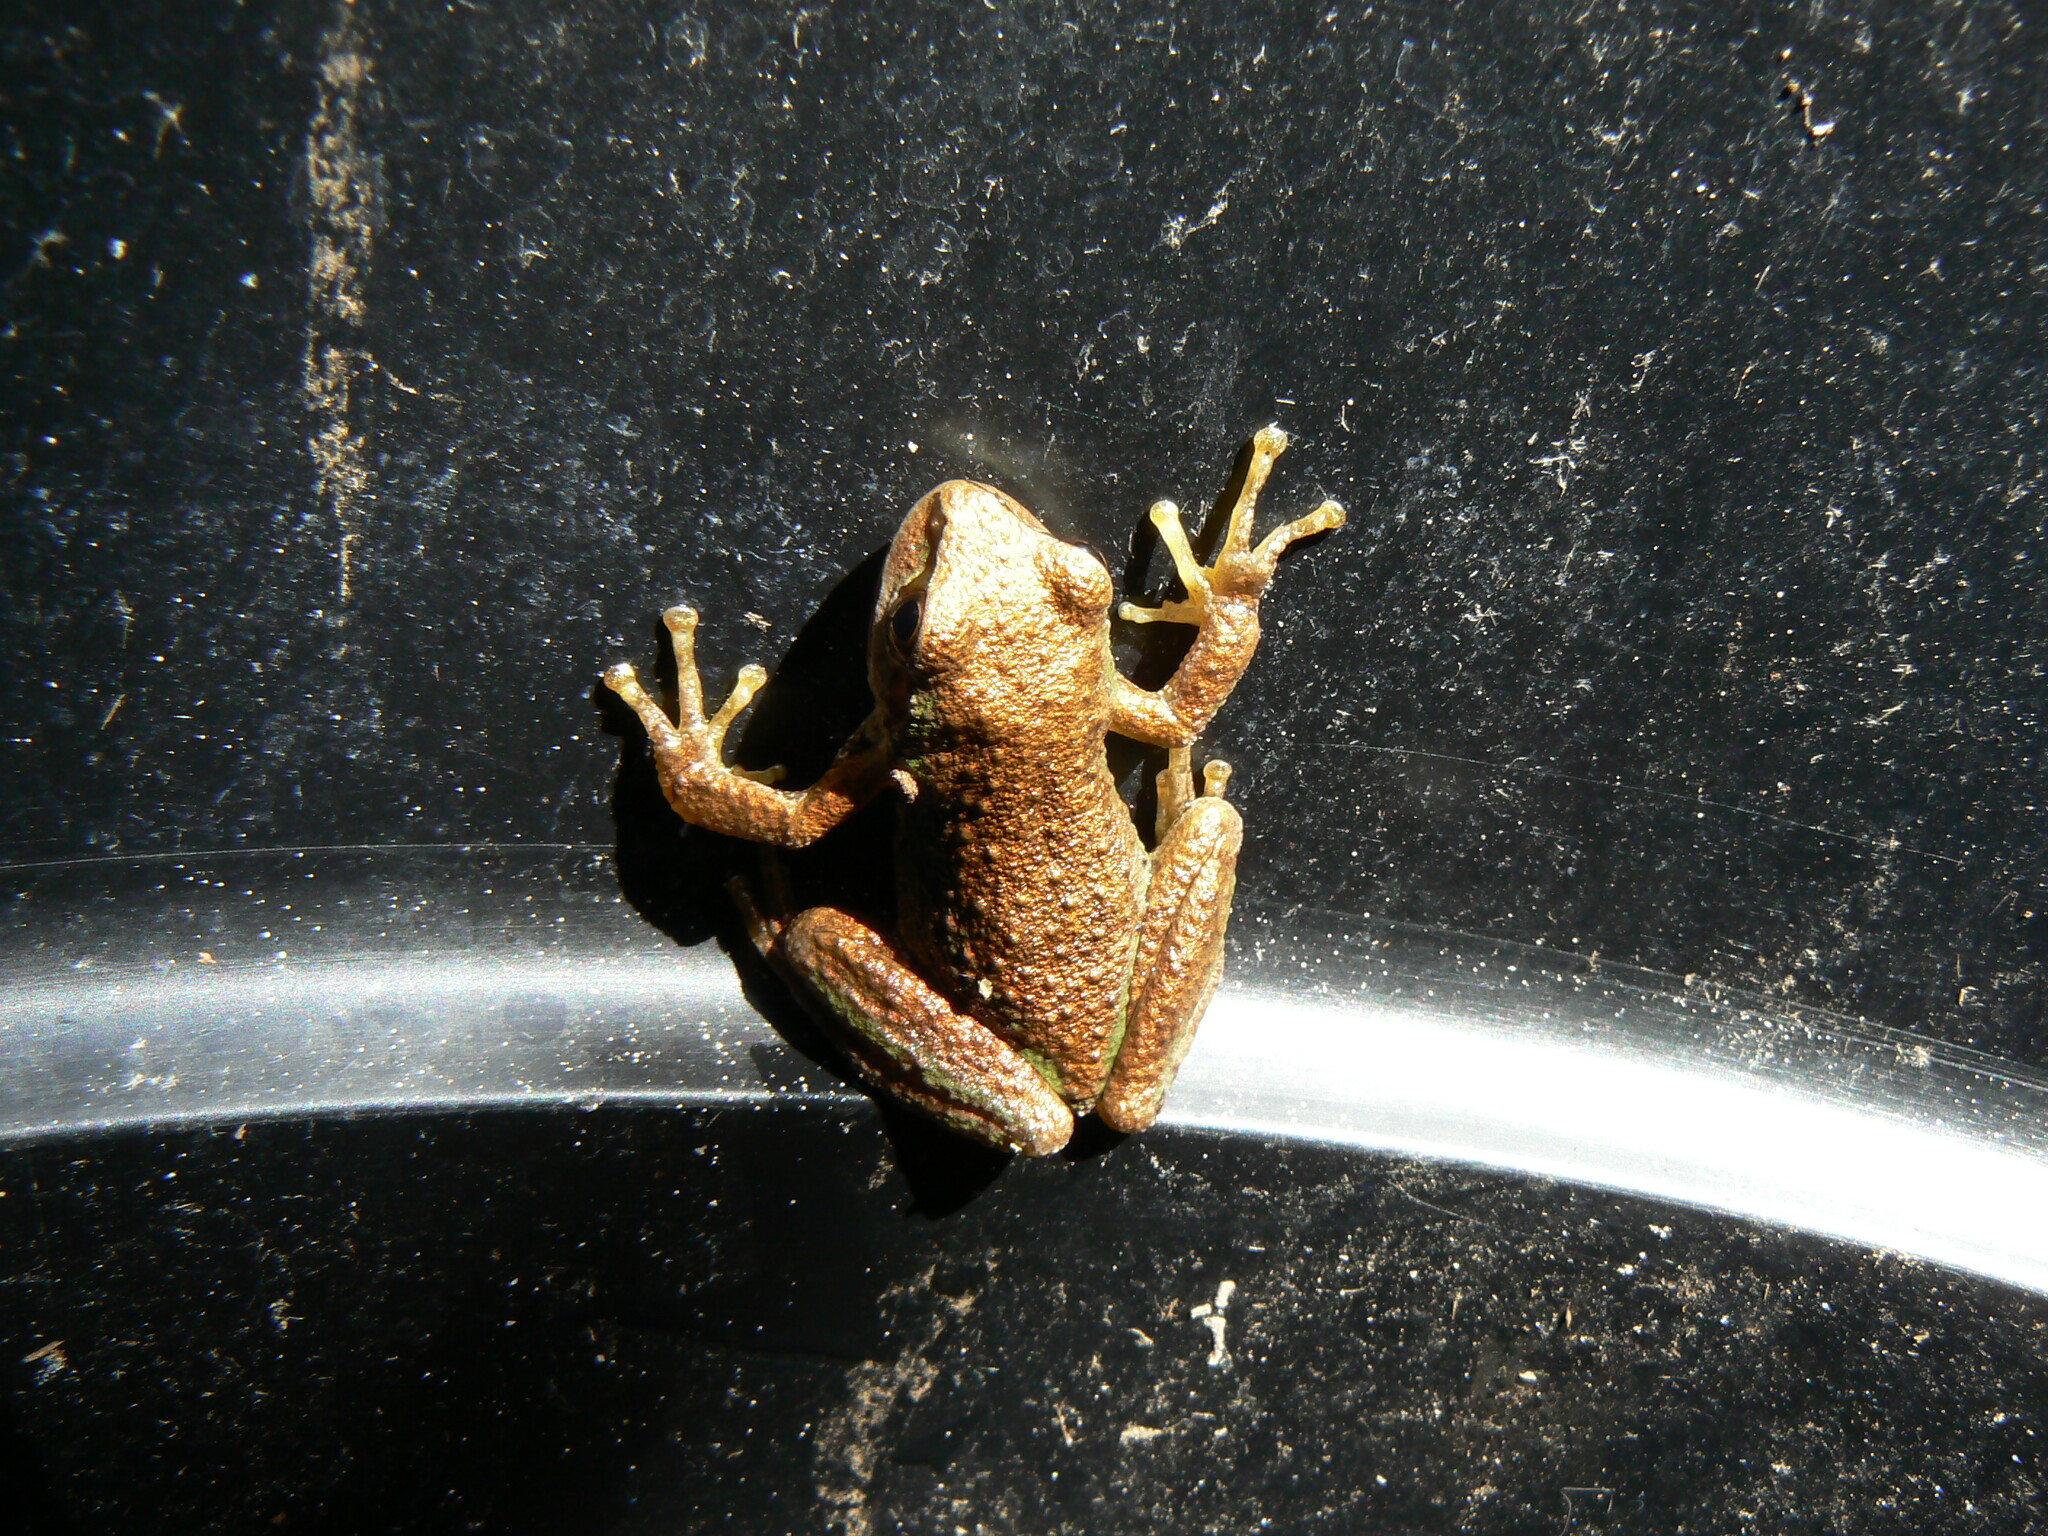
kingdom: Animalia
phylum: Chordata
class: Amphibia
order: Anura
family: Hylidae
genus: Pseudacris
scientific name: Pseudacris regilla
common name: Pacific chorus frog
